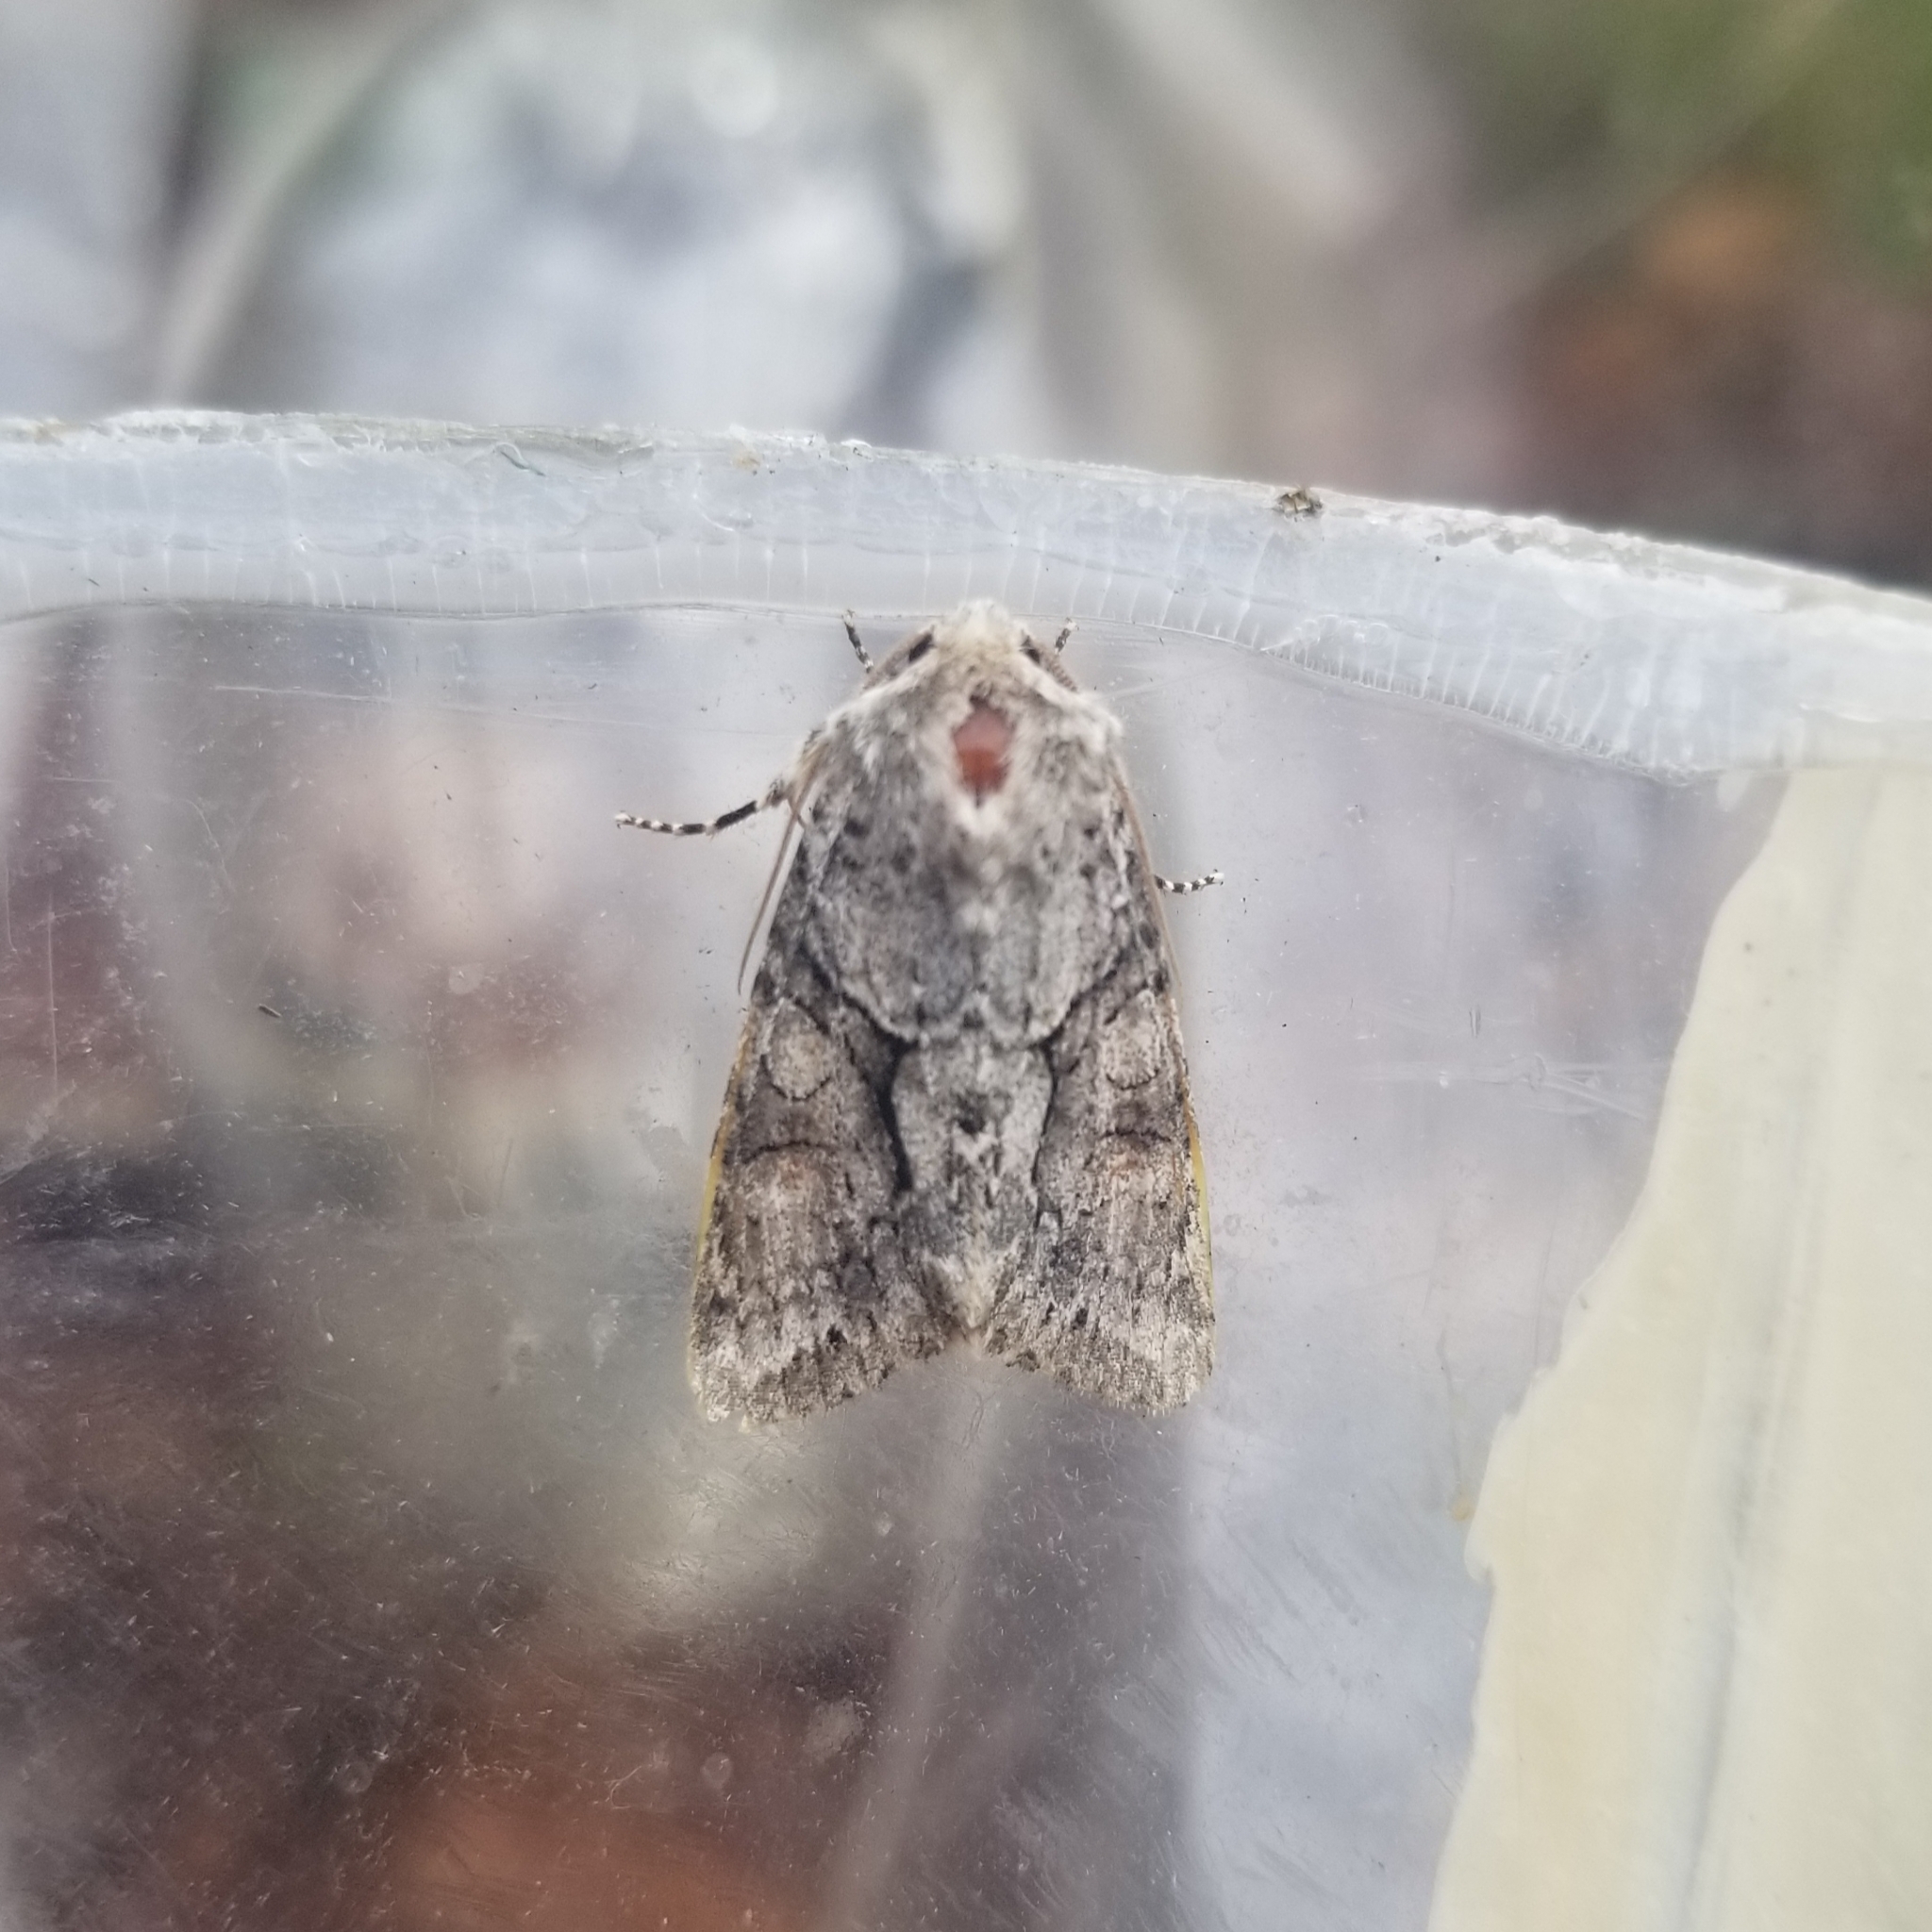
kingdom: Animalia
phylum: Arthropoda
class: Insecta
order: Lepidoptera
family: Noctuidae
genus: Achatia
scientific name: Achatia distincta
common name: Distinct quaker
